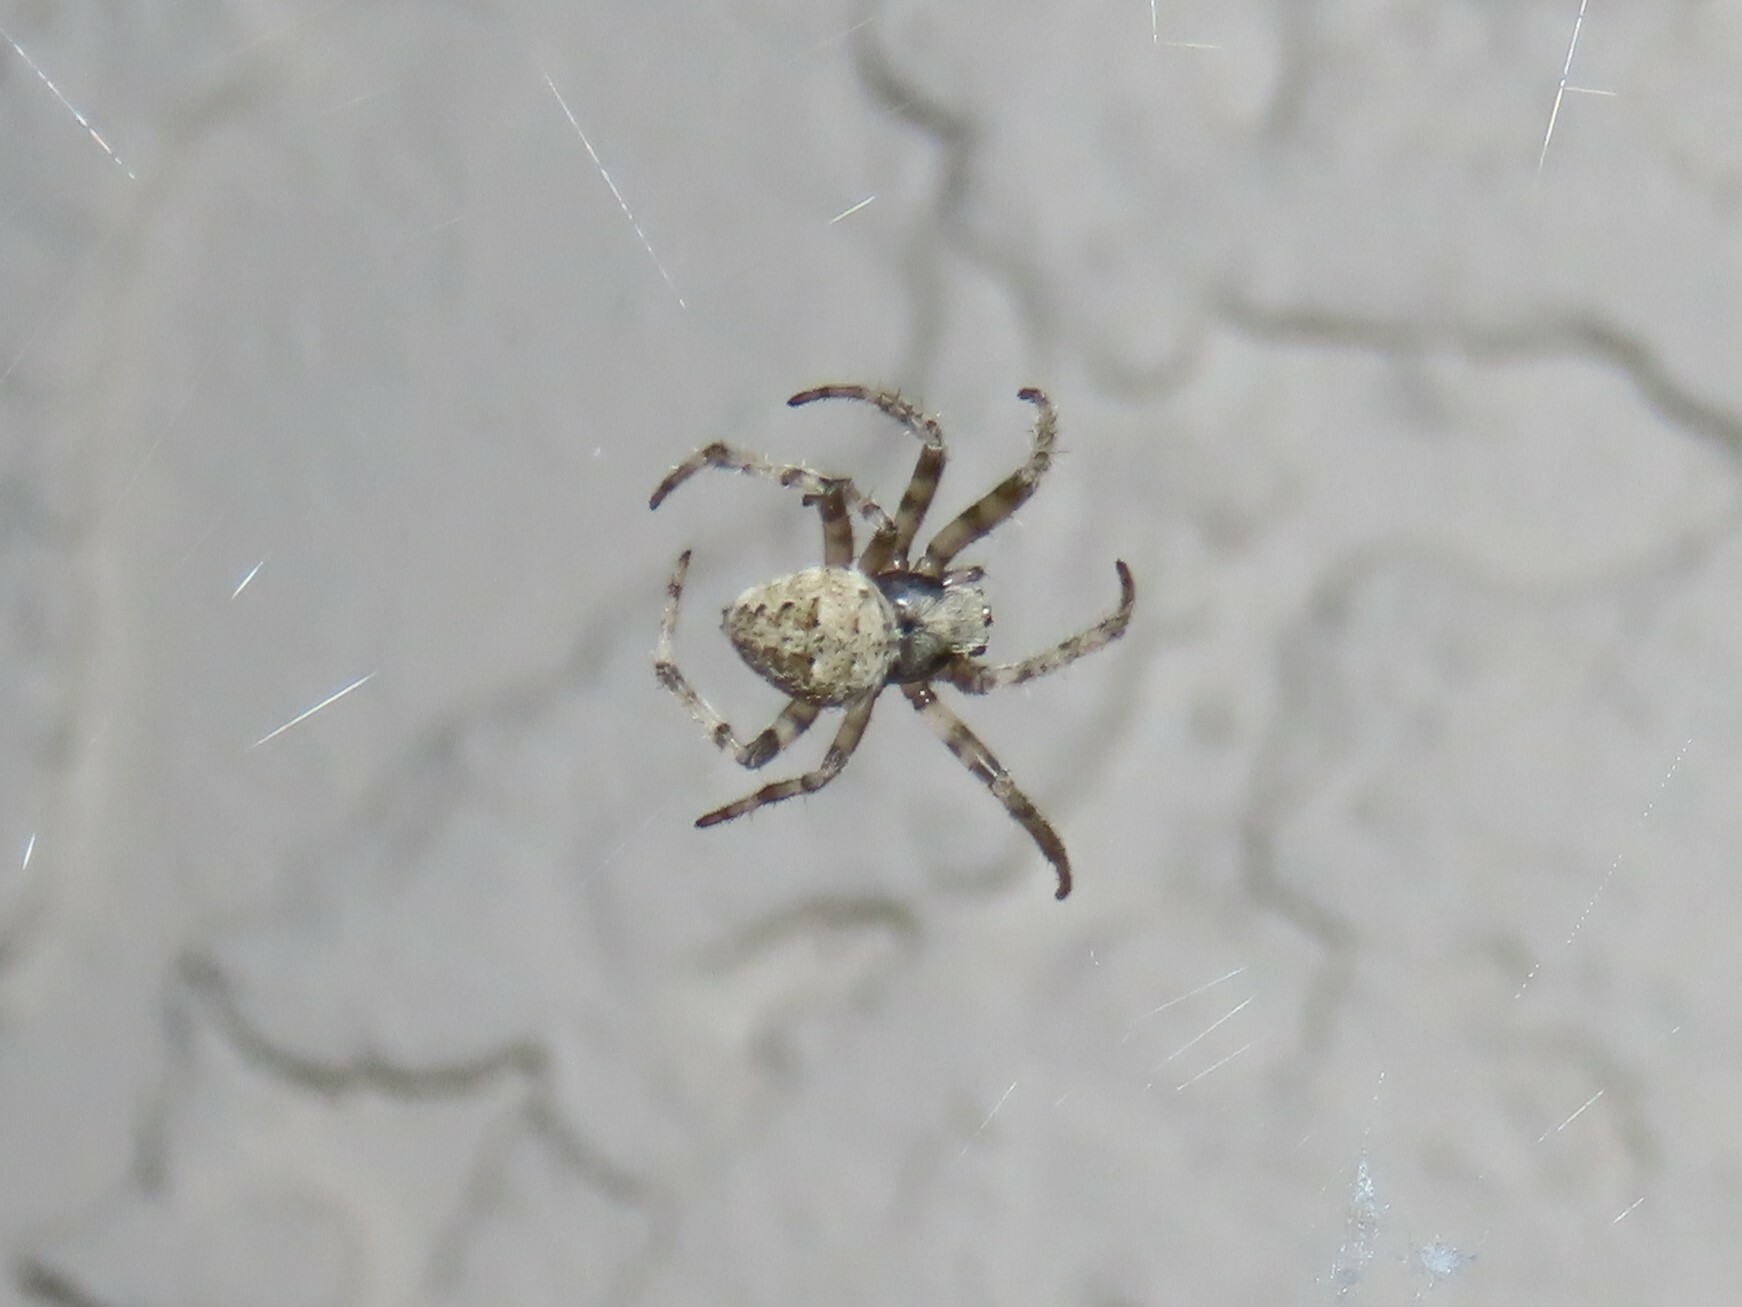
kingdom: Animalia
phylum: Arthropoda
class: Arachnida
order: Araneae
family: Araneidae
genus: Neoscona
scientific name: Neoscona nautica
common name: Orb weavers
